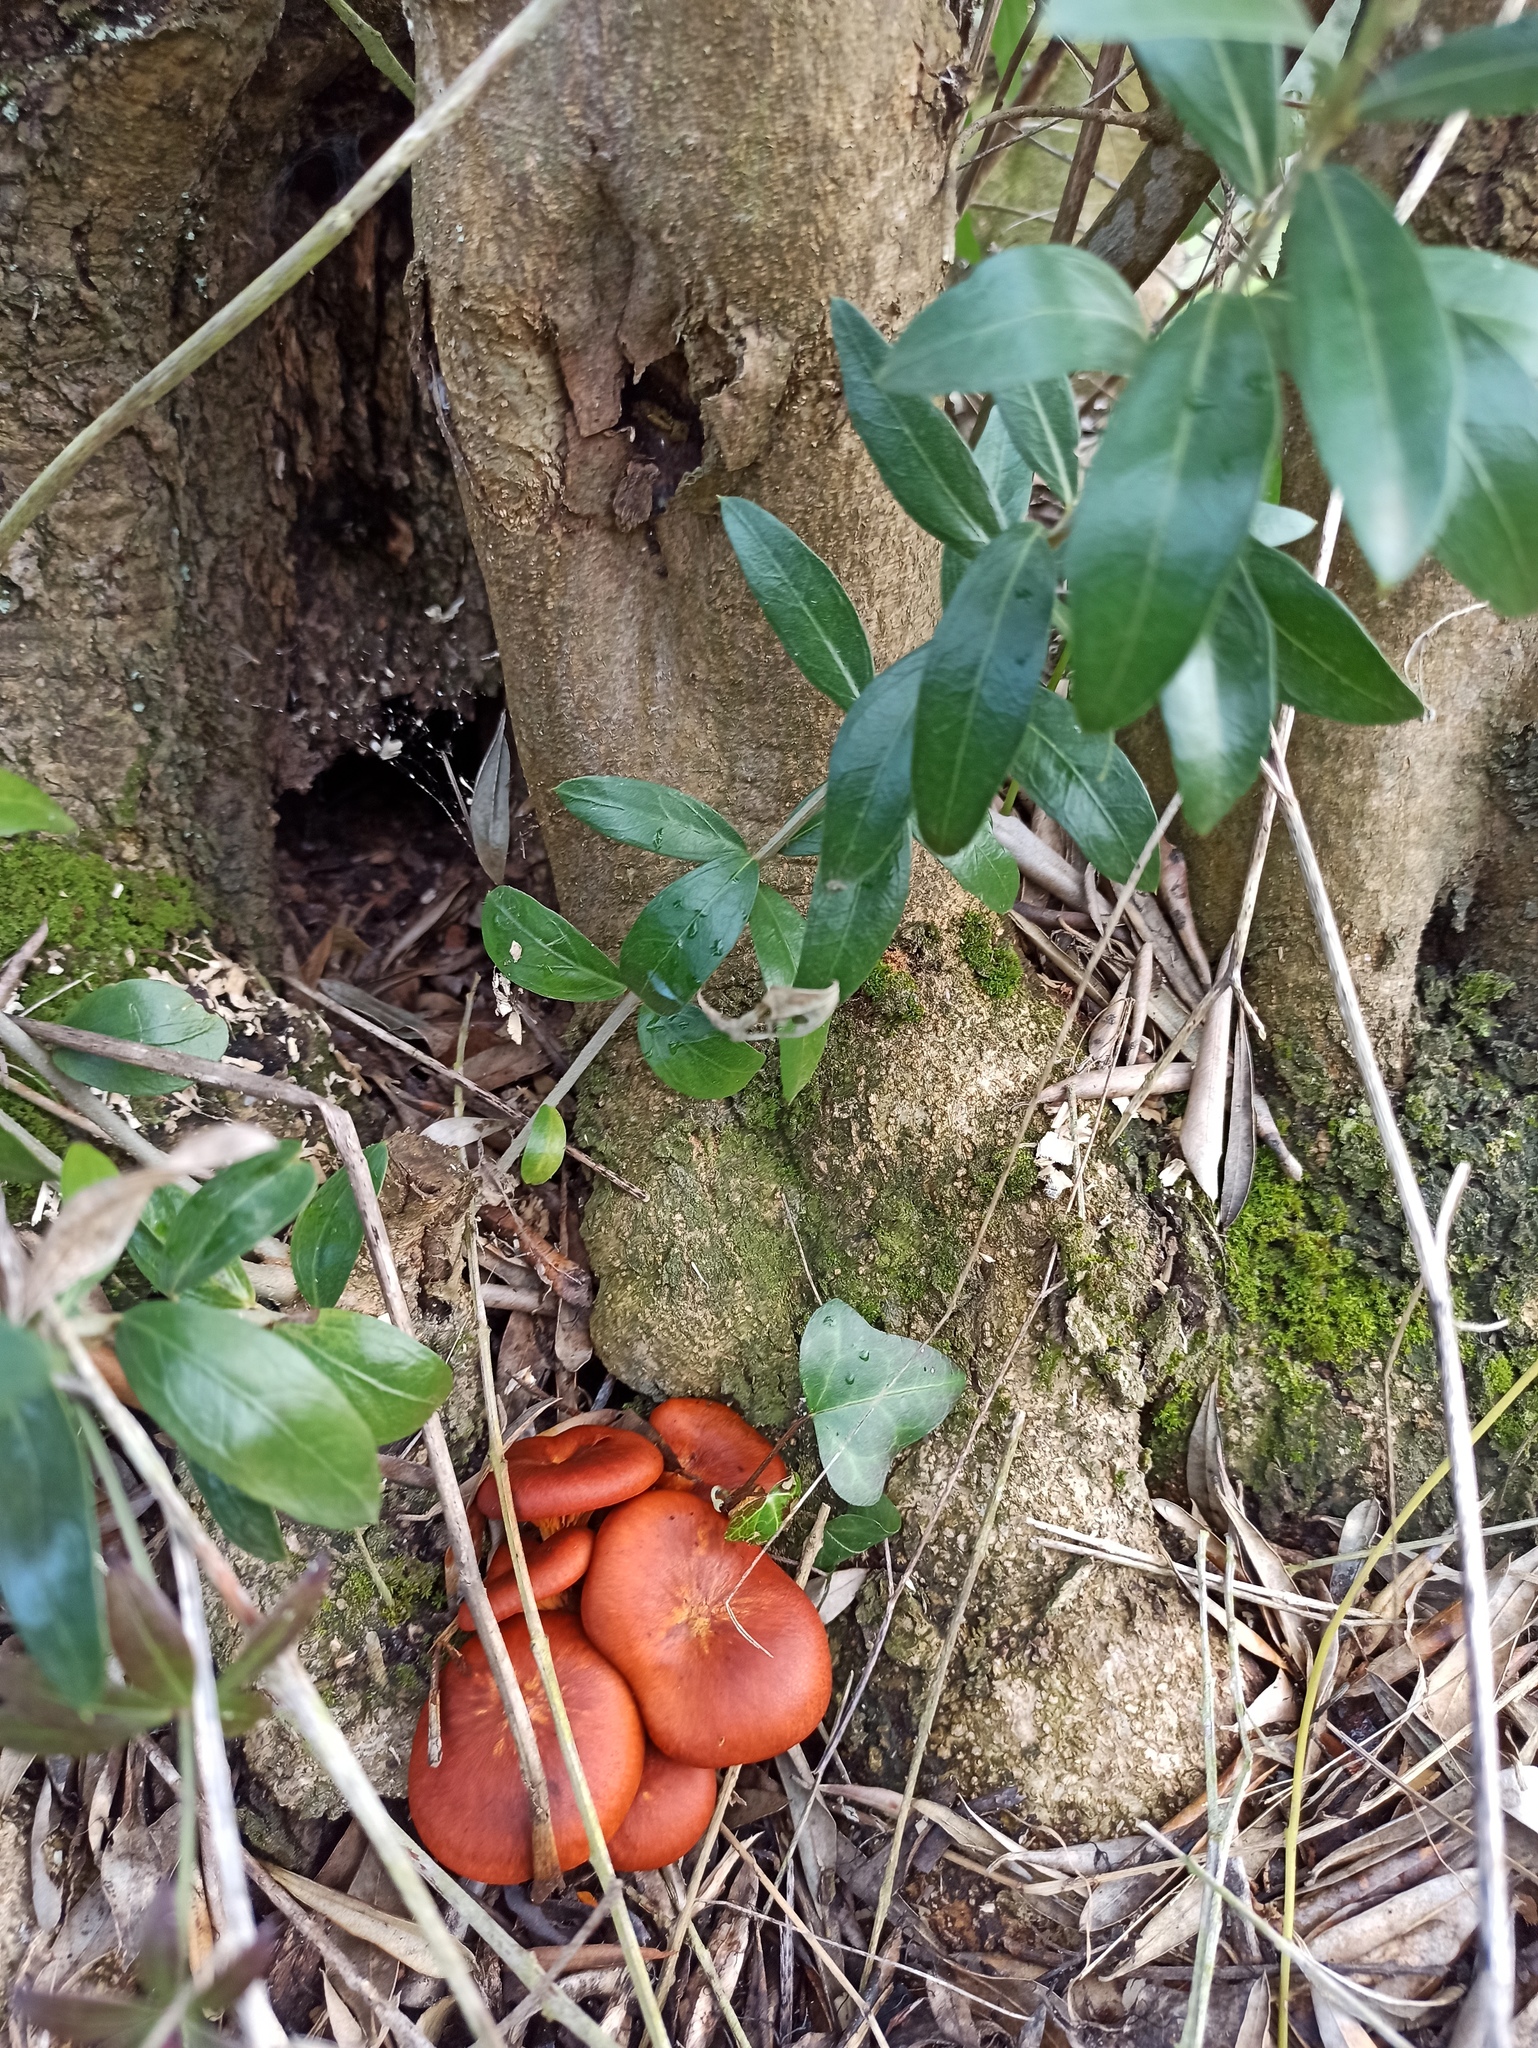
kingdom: Fungi
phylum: Basidiomycota
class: Agaricomycetes
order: Agaricales
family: Omphalotaceae
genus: Omphalotus
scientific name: Omphalotus olearius
